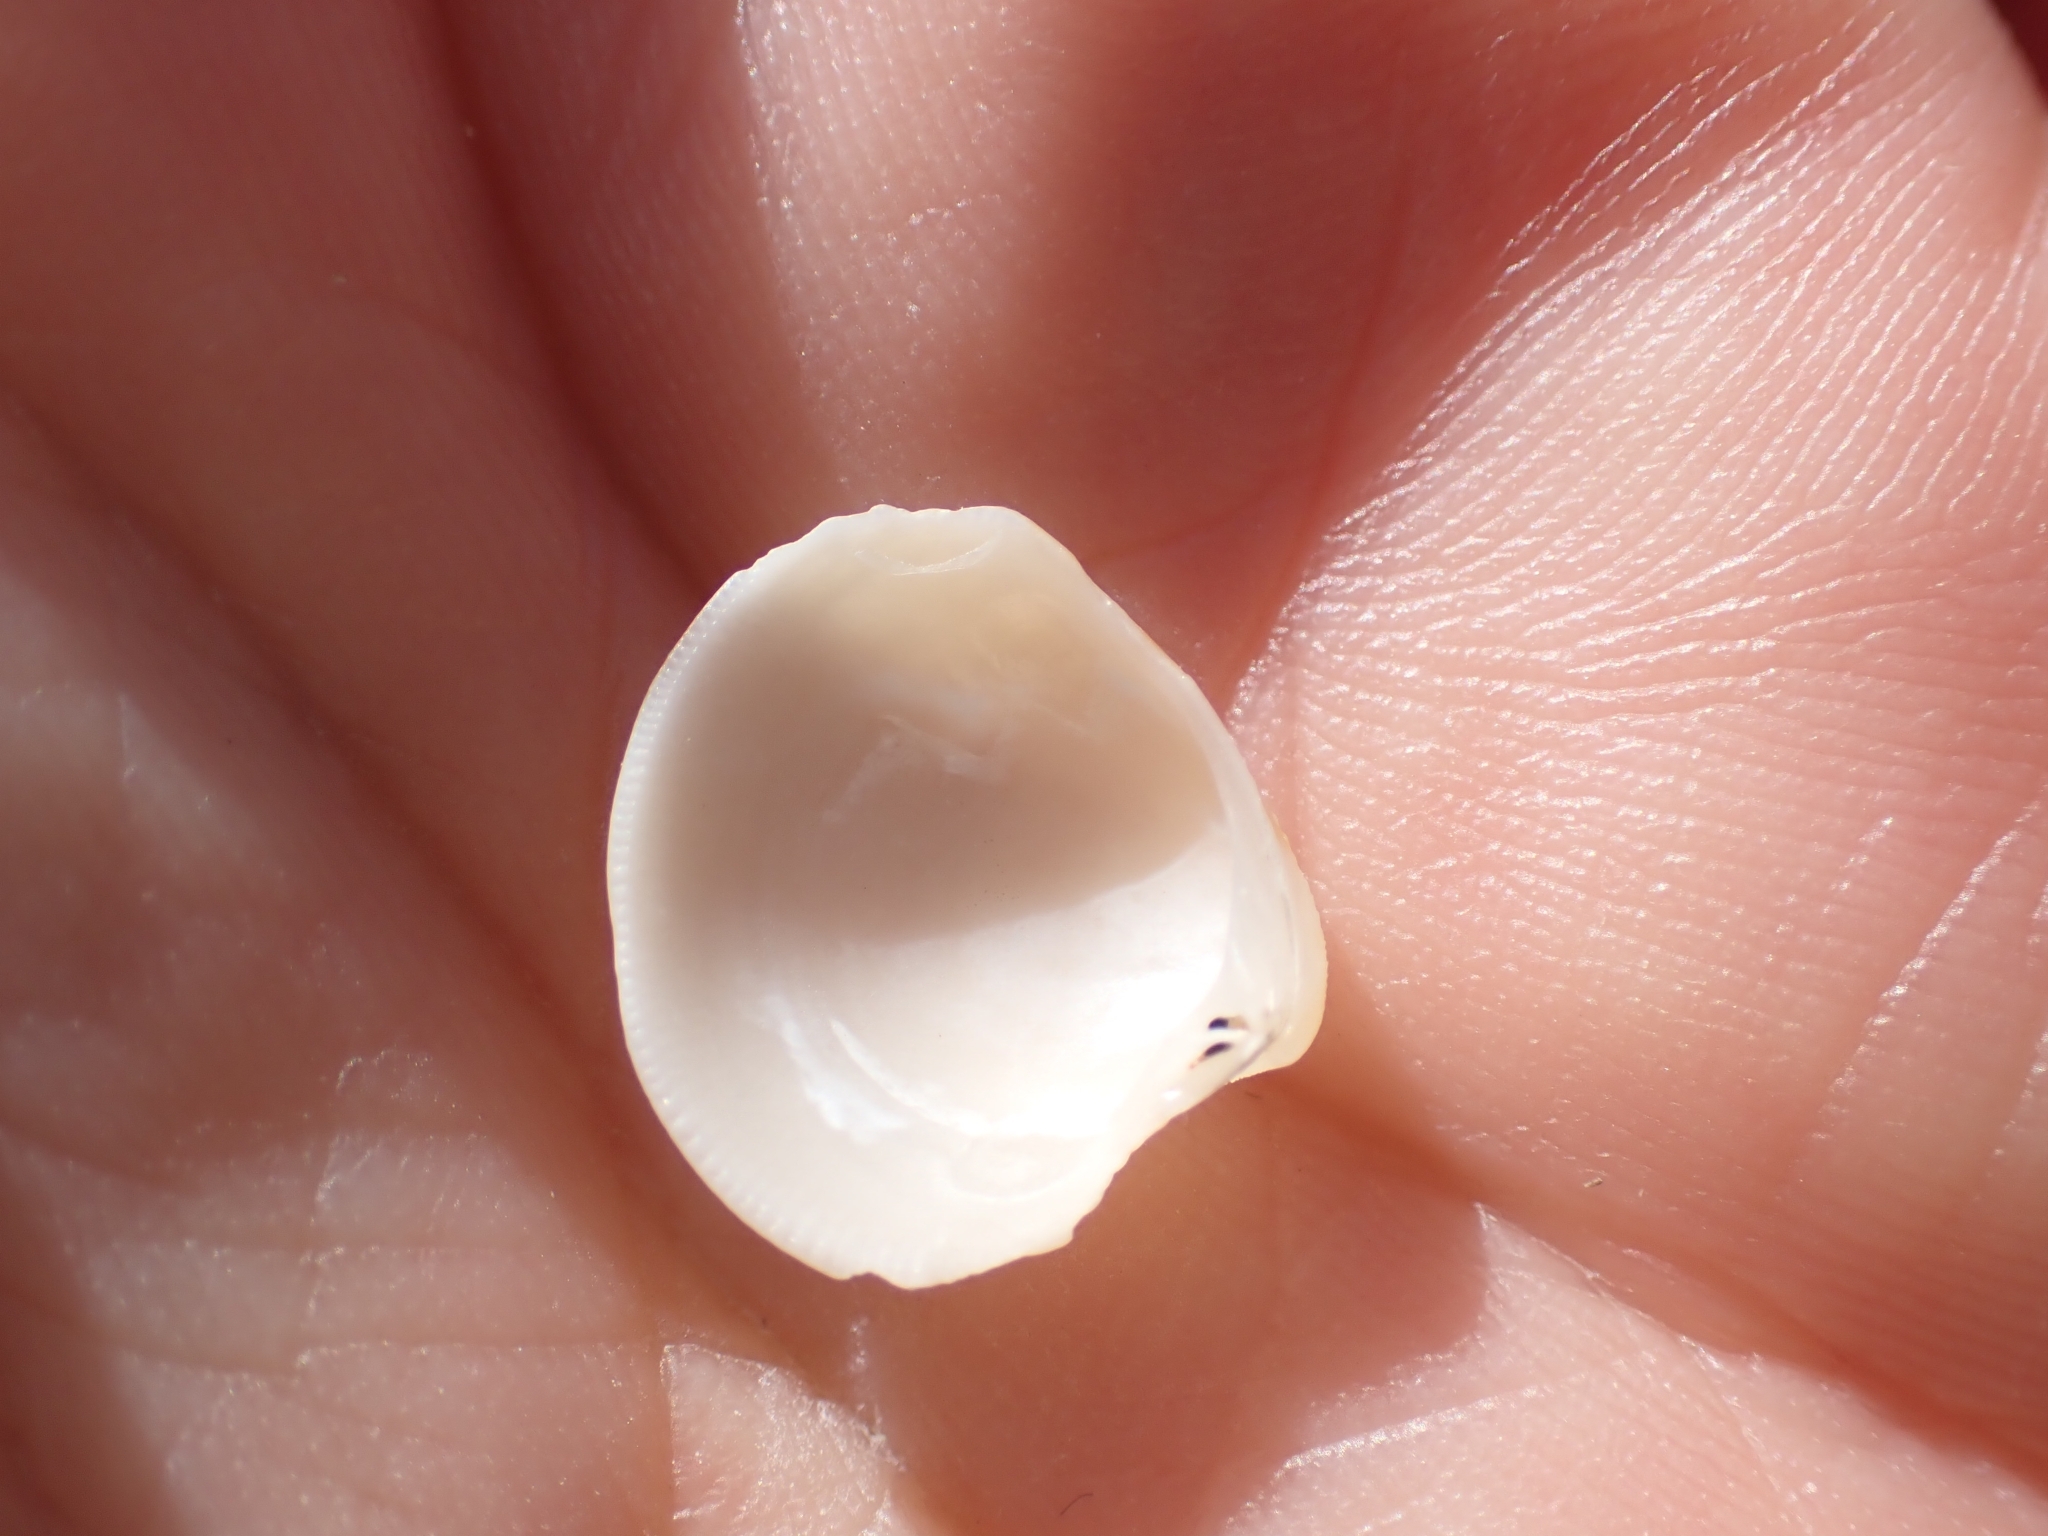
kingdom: Animalia
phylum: Mollusca
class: Bivalvia
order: Venerida
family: Veneridae
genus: Chamelea
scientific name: Chamelea gallina
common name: Chicken venus
